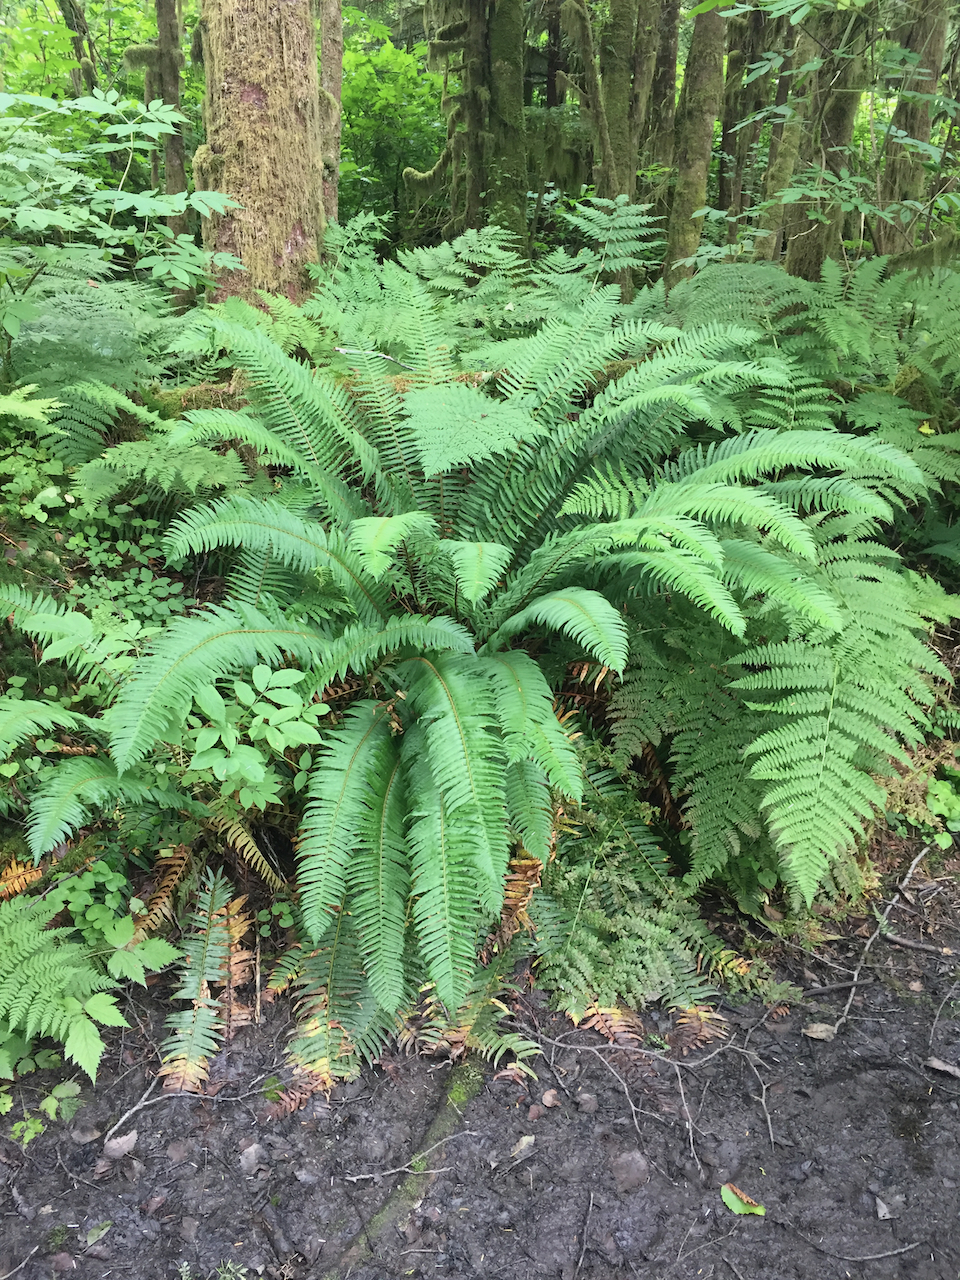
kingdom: Plantae
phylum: Tracheophyta
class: Polypodiopsida
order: Polypodiales
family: Dryopteridaceae
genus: Polystichum
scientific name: Polystichum munitum
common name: Western sword-fern
